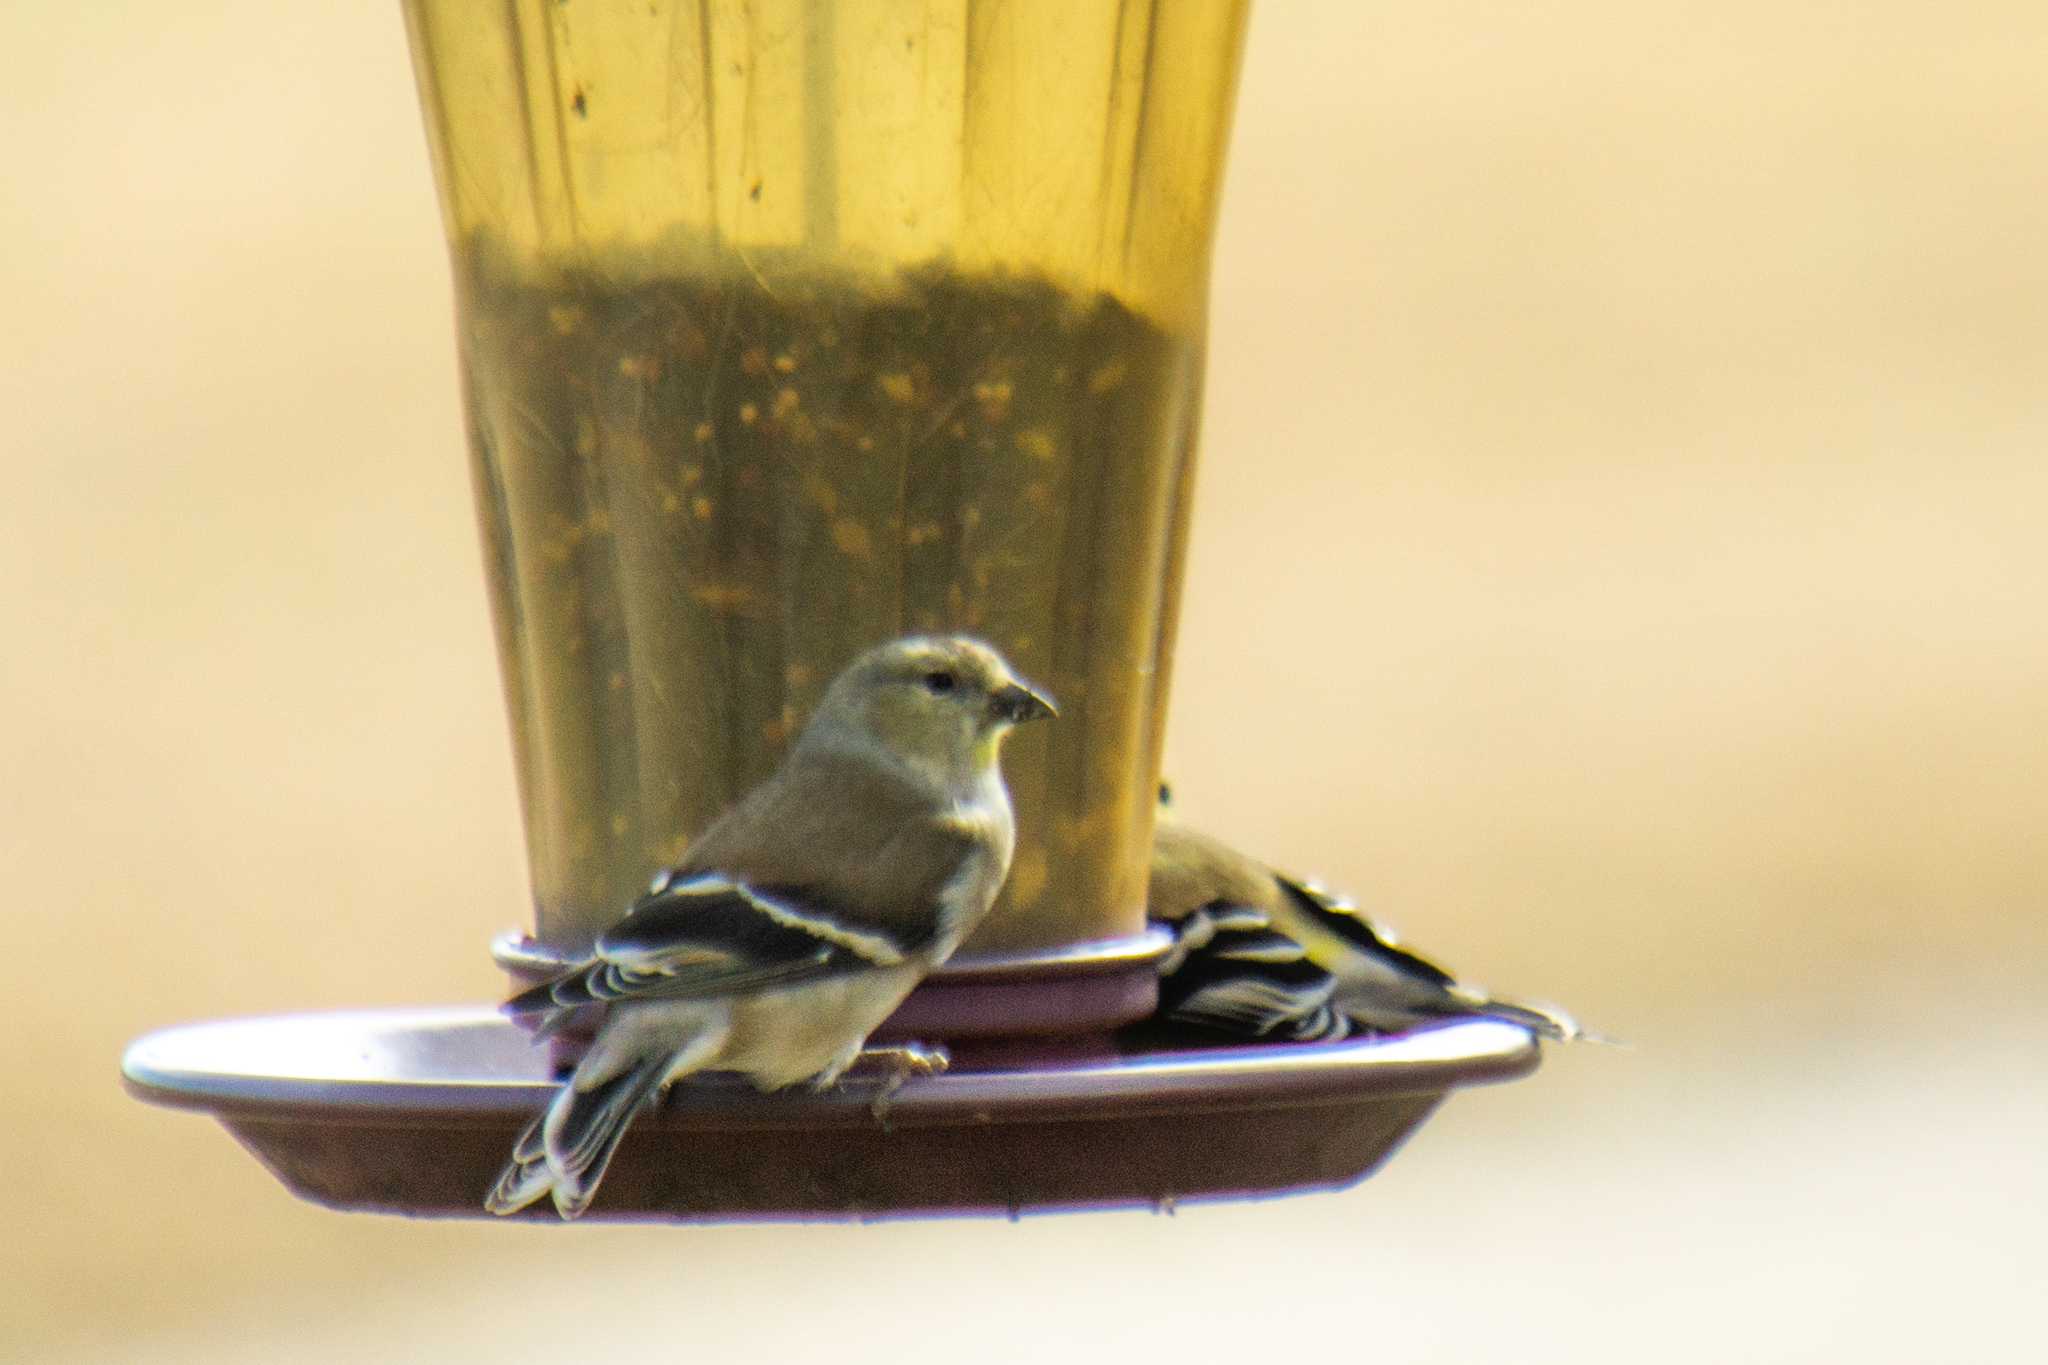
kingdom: Animalia
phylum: Chordata
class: Aves
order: Passeriformes
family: Fringillidae
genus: Spinus
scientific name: Spinus tristis
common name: American goldfinch
